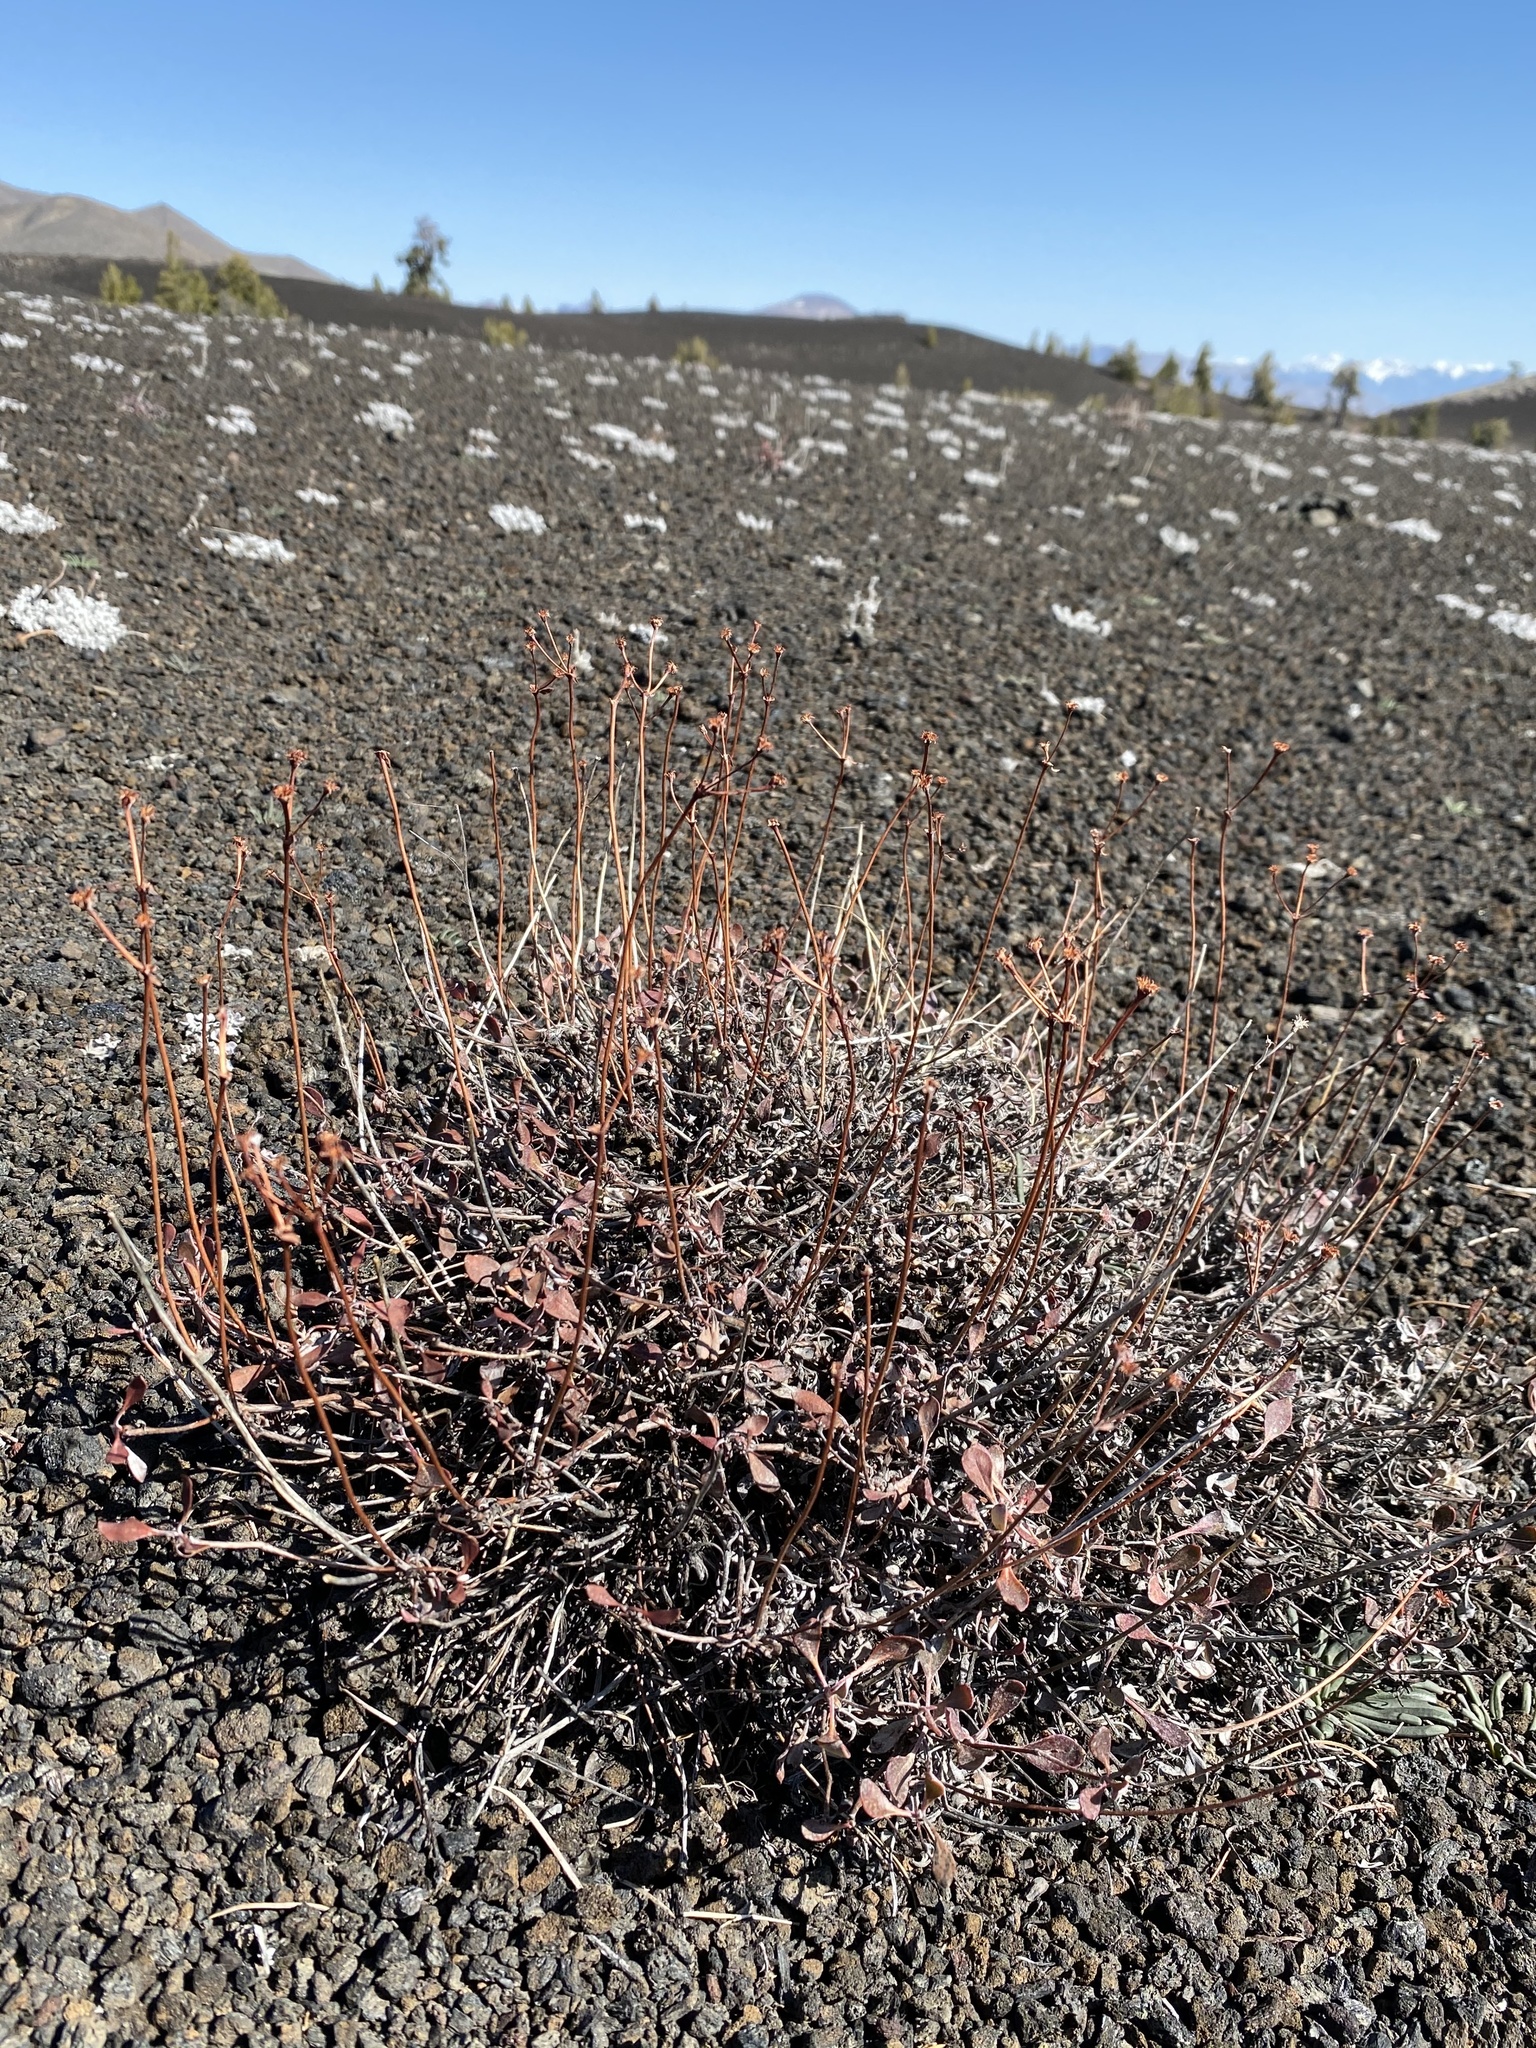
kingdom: Plantae
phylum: Tracheophyta
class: Magnoliopsida
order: Caryophyllales
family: Polygonaceae
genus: Eriogonum
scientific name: Eriogonum umbellatum
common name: Sulfur-buckwheat
